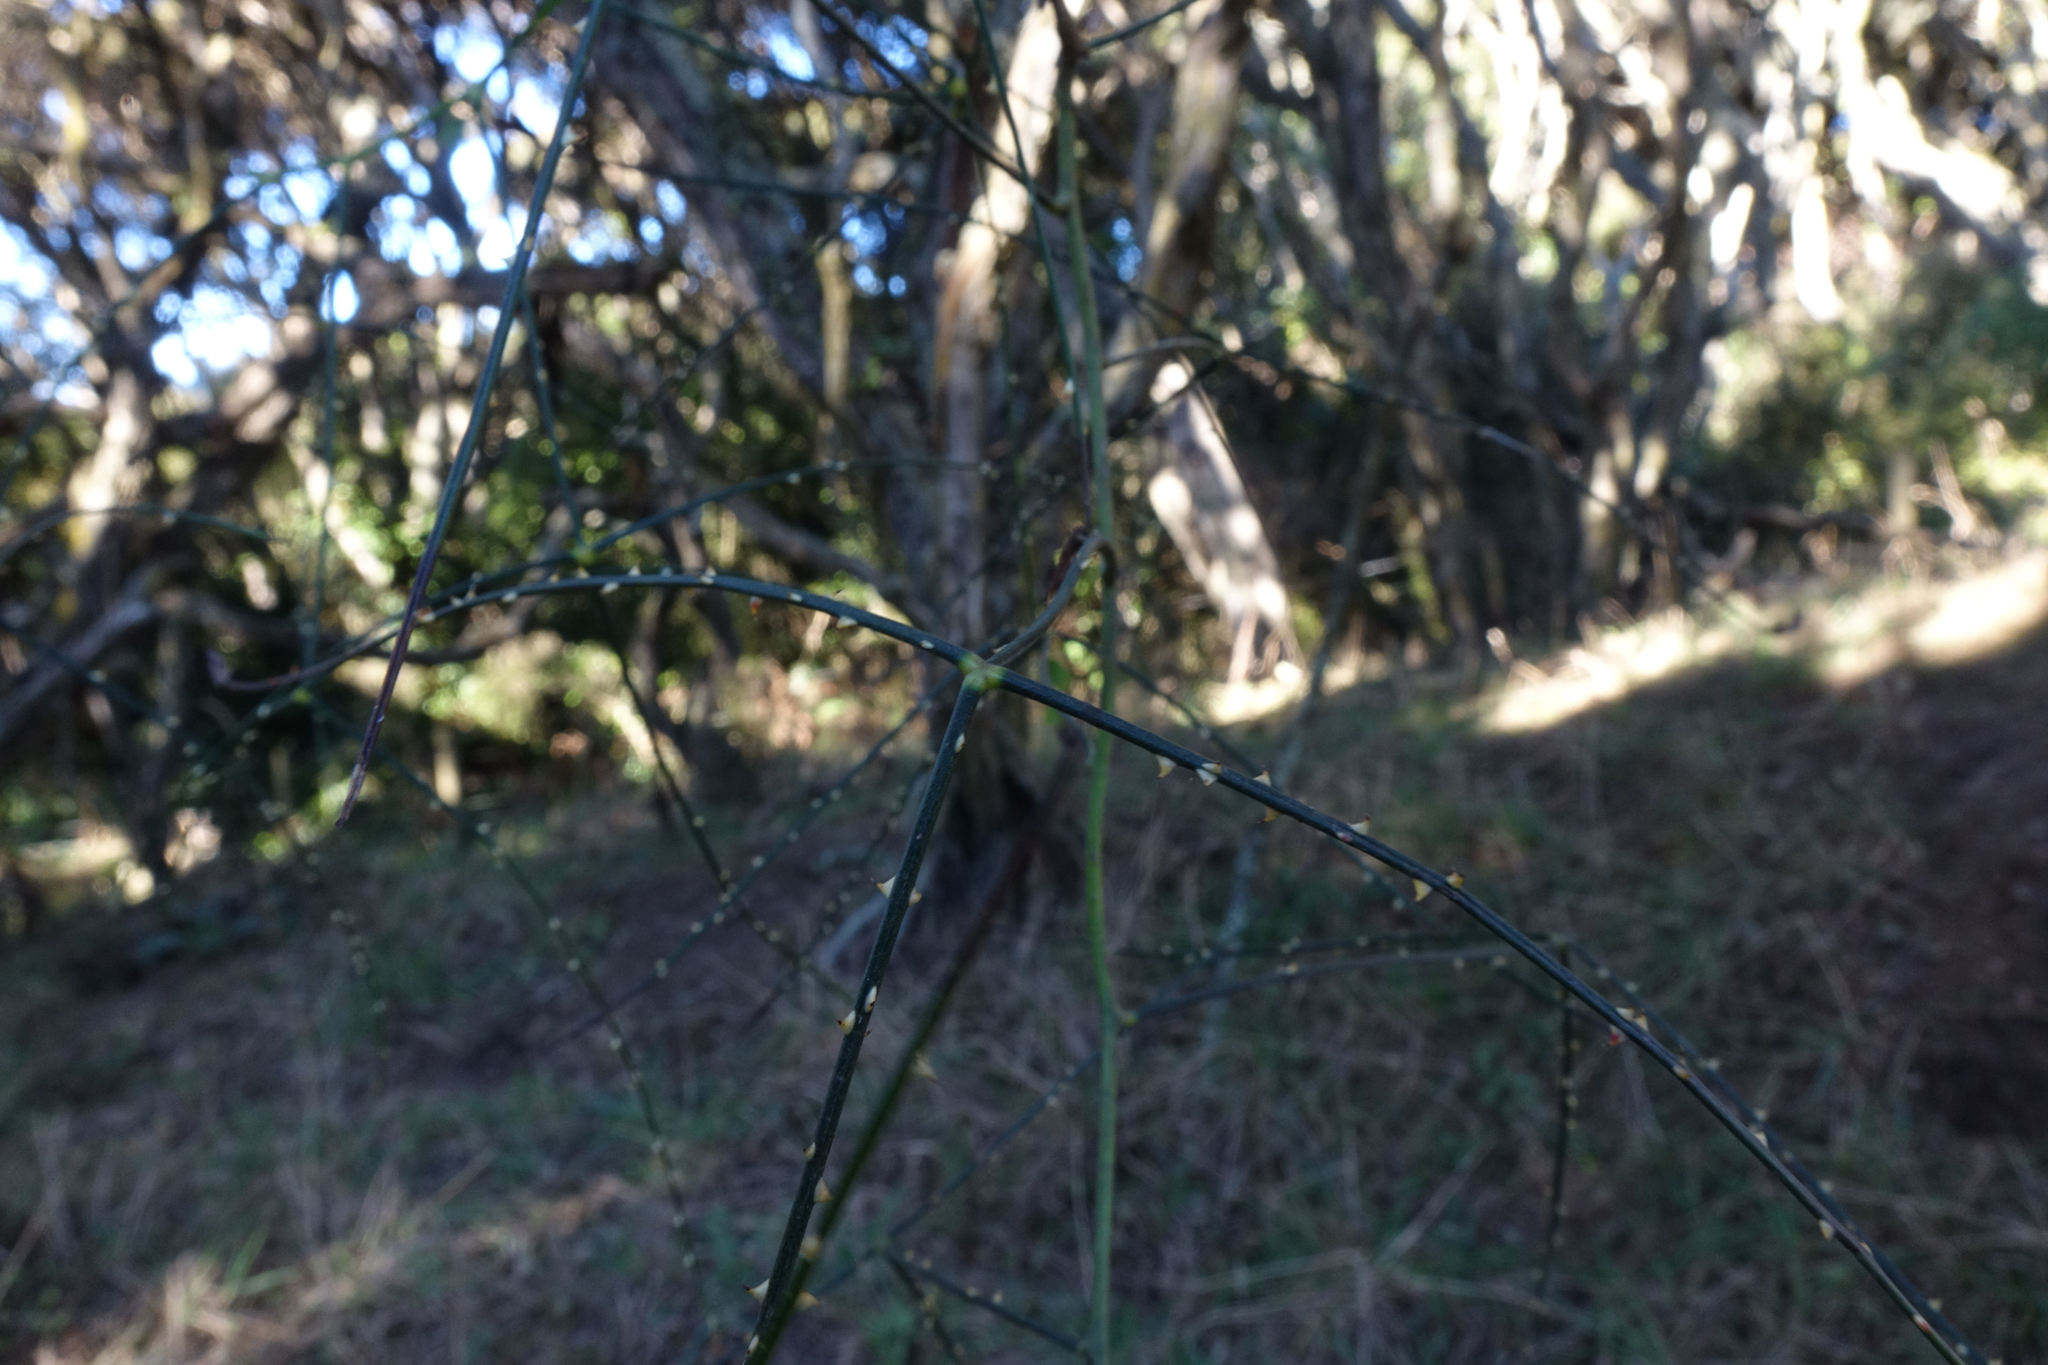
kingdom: Plantae
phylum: Tracheophyta
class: Magnoliopsida
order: Rosales
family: Rosaceae
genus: Rubus
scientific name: Rubus squarrosus
